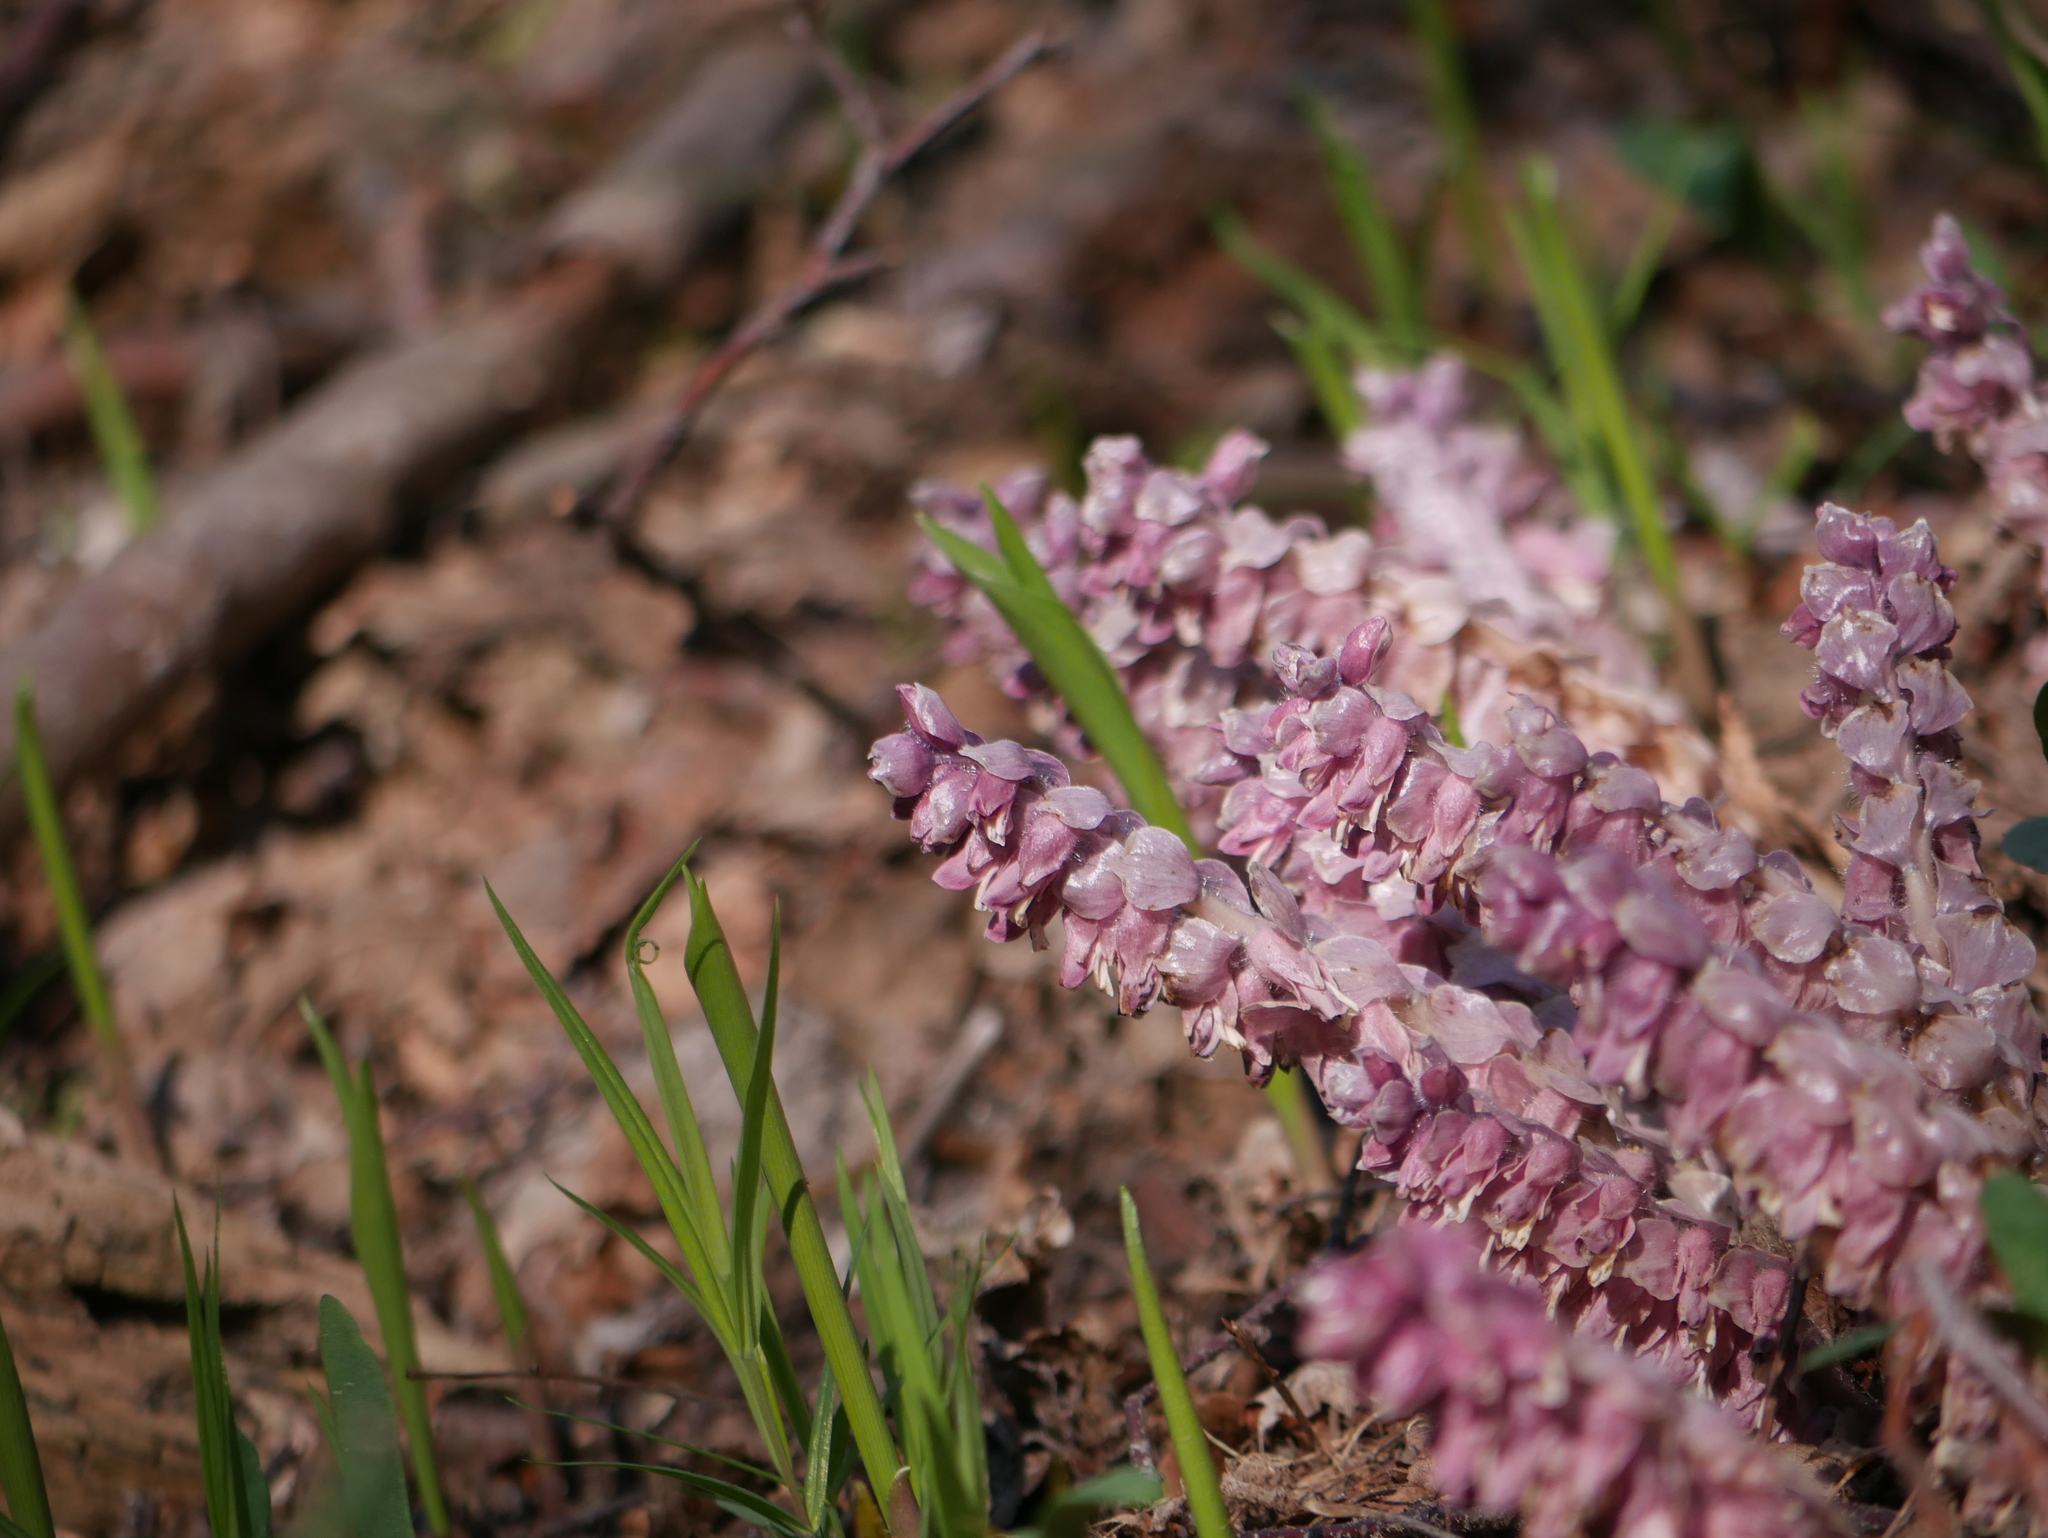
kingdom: Plantae
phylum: Tracheophyta
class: Magnoliopsida
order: Lamiales
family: Orobanchaceae
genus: Lathraea
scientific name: Lathraea squamaria
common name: Toothwort
